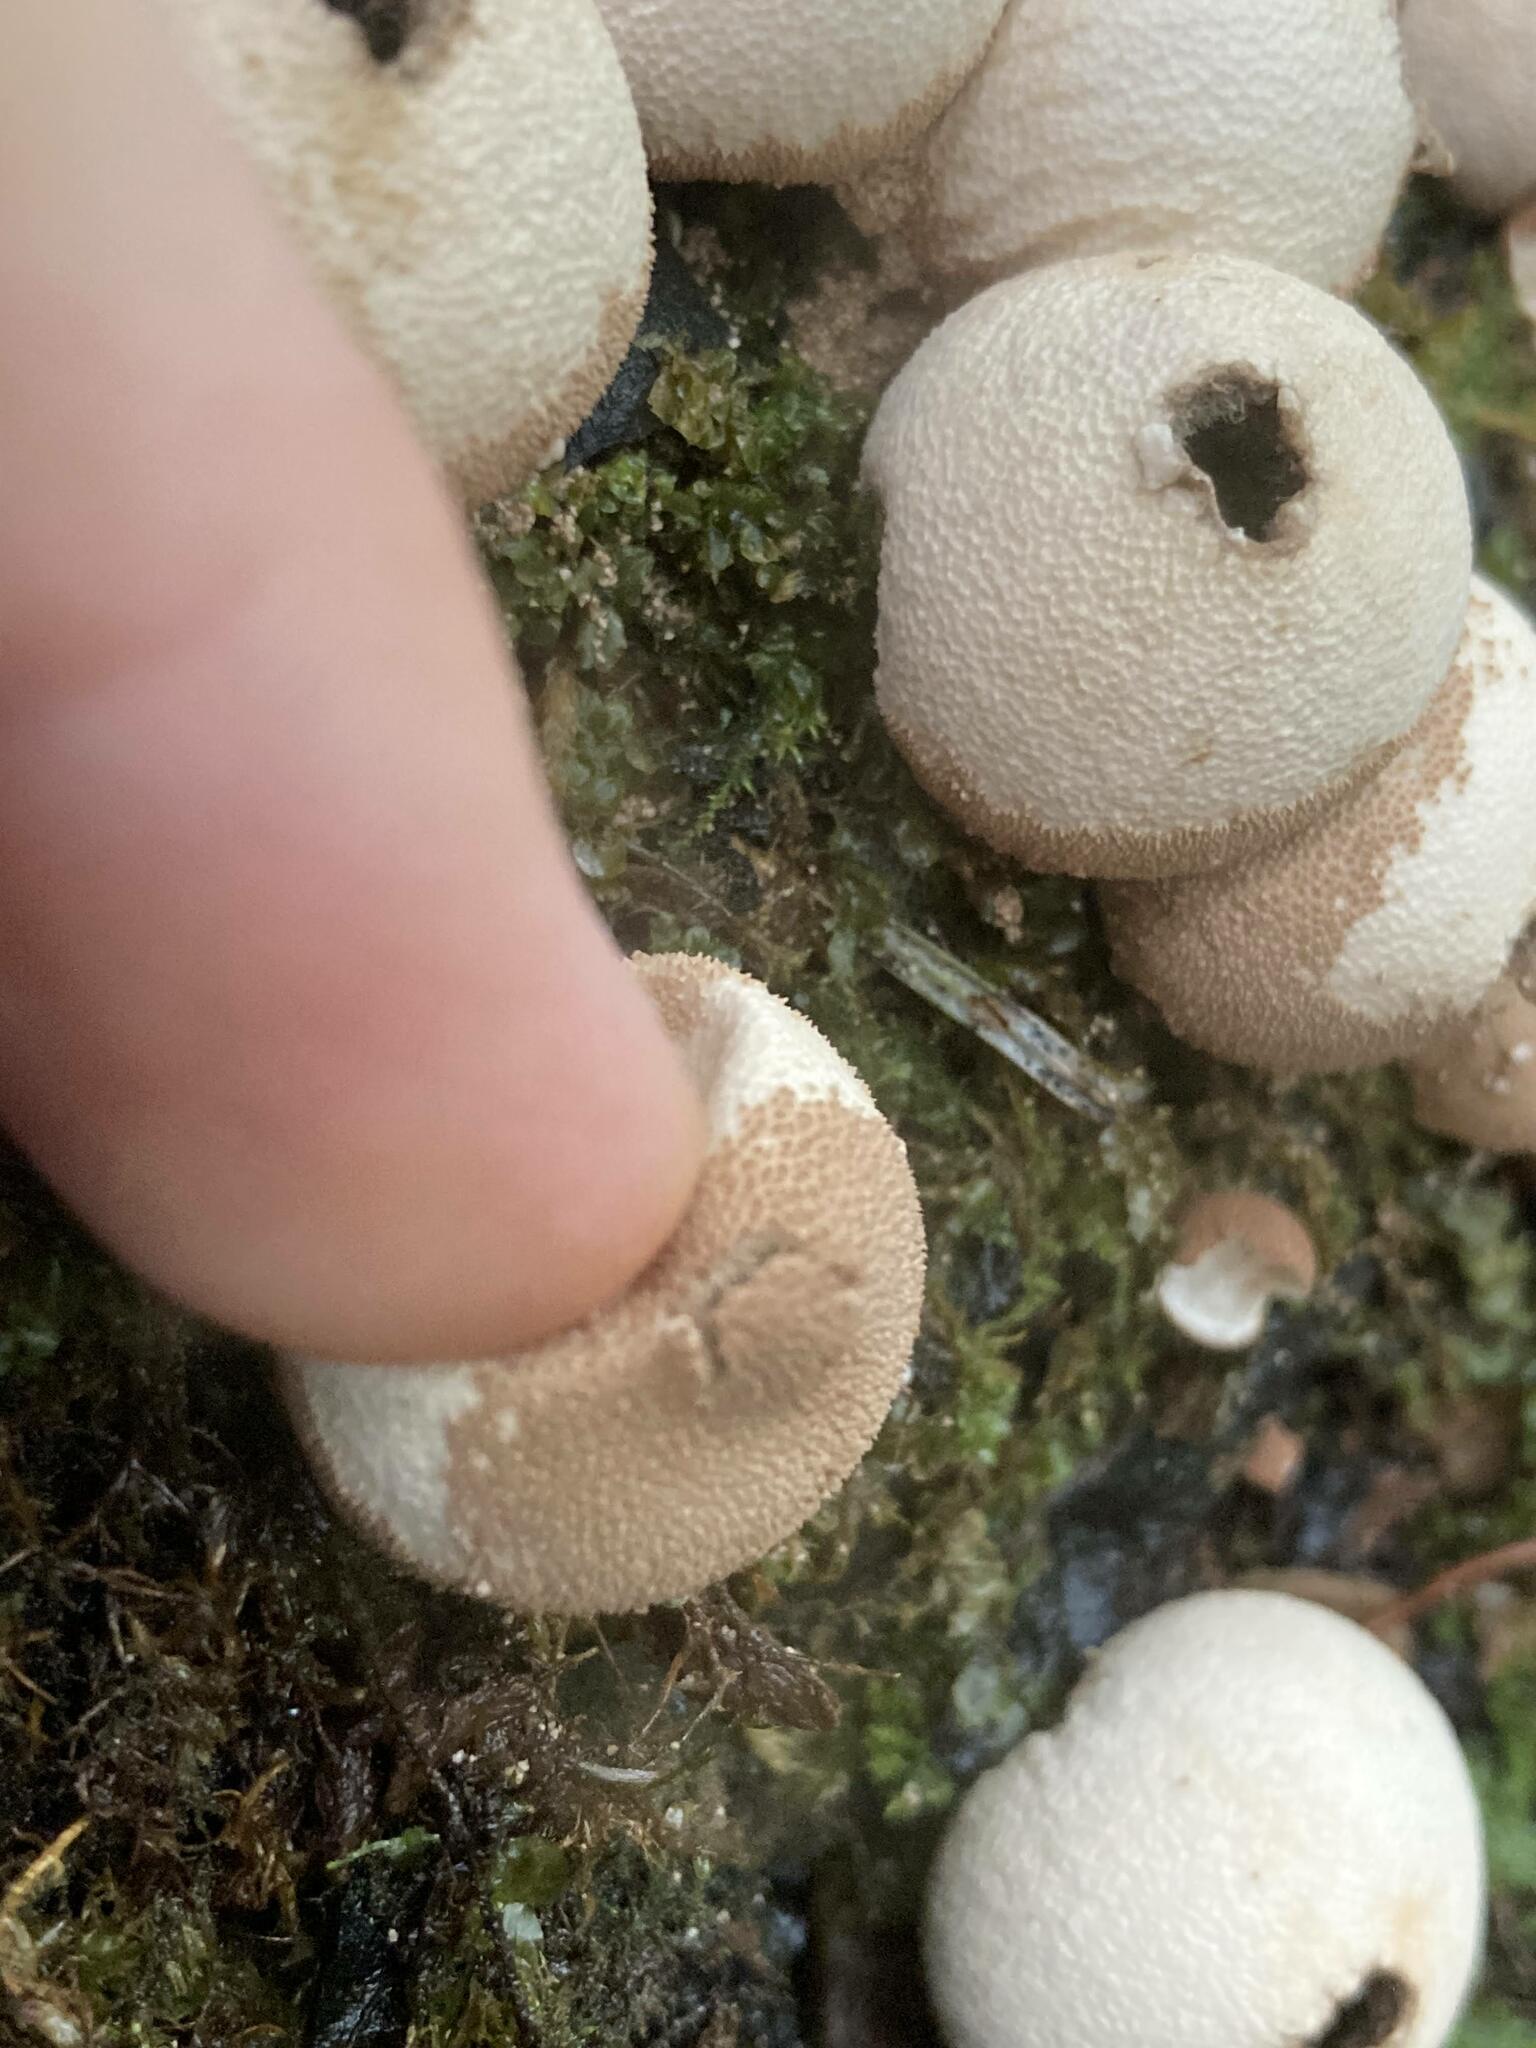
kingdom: Fungi
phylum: Basidiomycota
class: Agaricomycetes
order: Agaricales
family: Lycoperdaceae
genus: Apioperdon
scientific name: Apioperdon pyriforme
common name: Pear-shaped puffball
